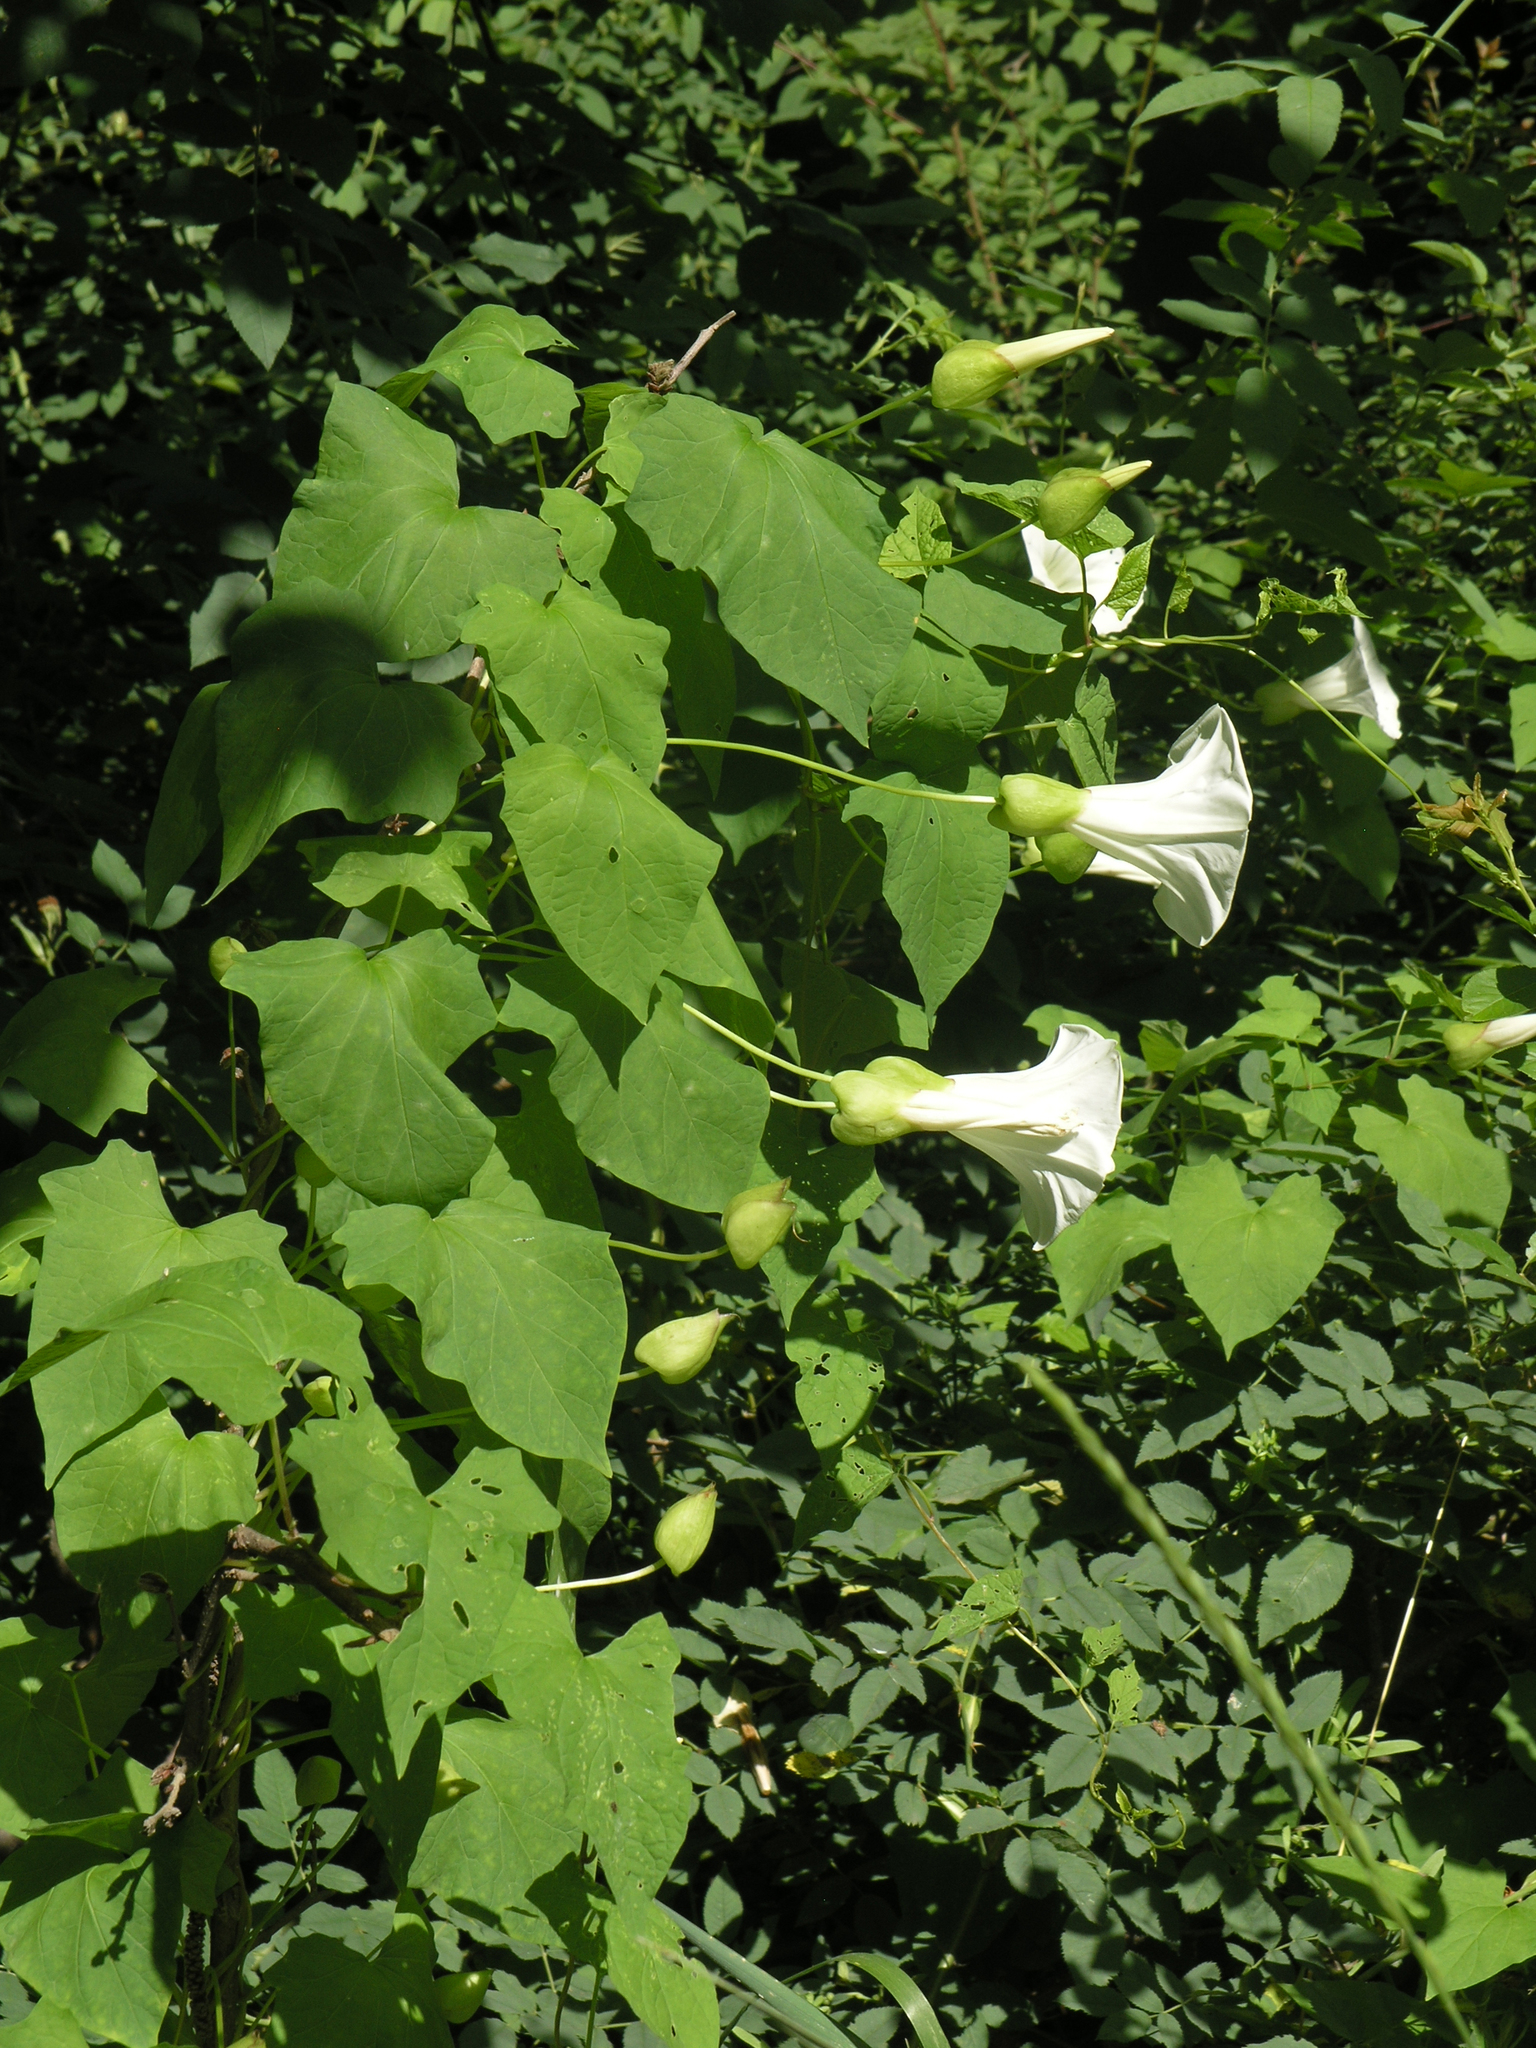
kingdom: Plantae
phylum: Tracheophyta
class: Magnoliopsida
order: Solanales
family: Convolvulaceae
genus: Calystegia
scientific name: Calystegia silvatica
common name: Large bindweed
